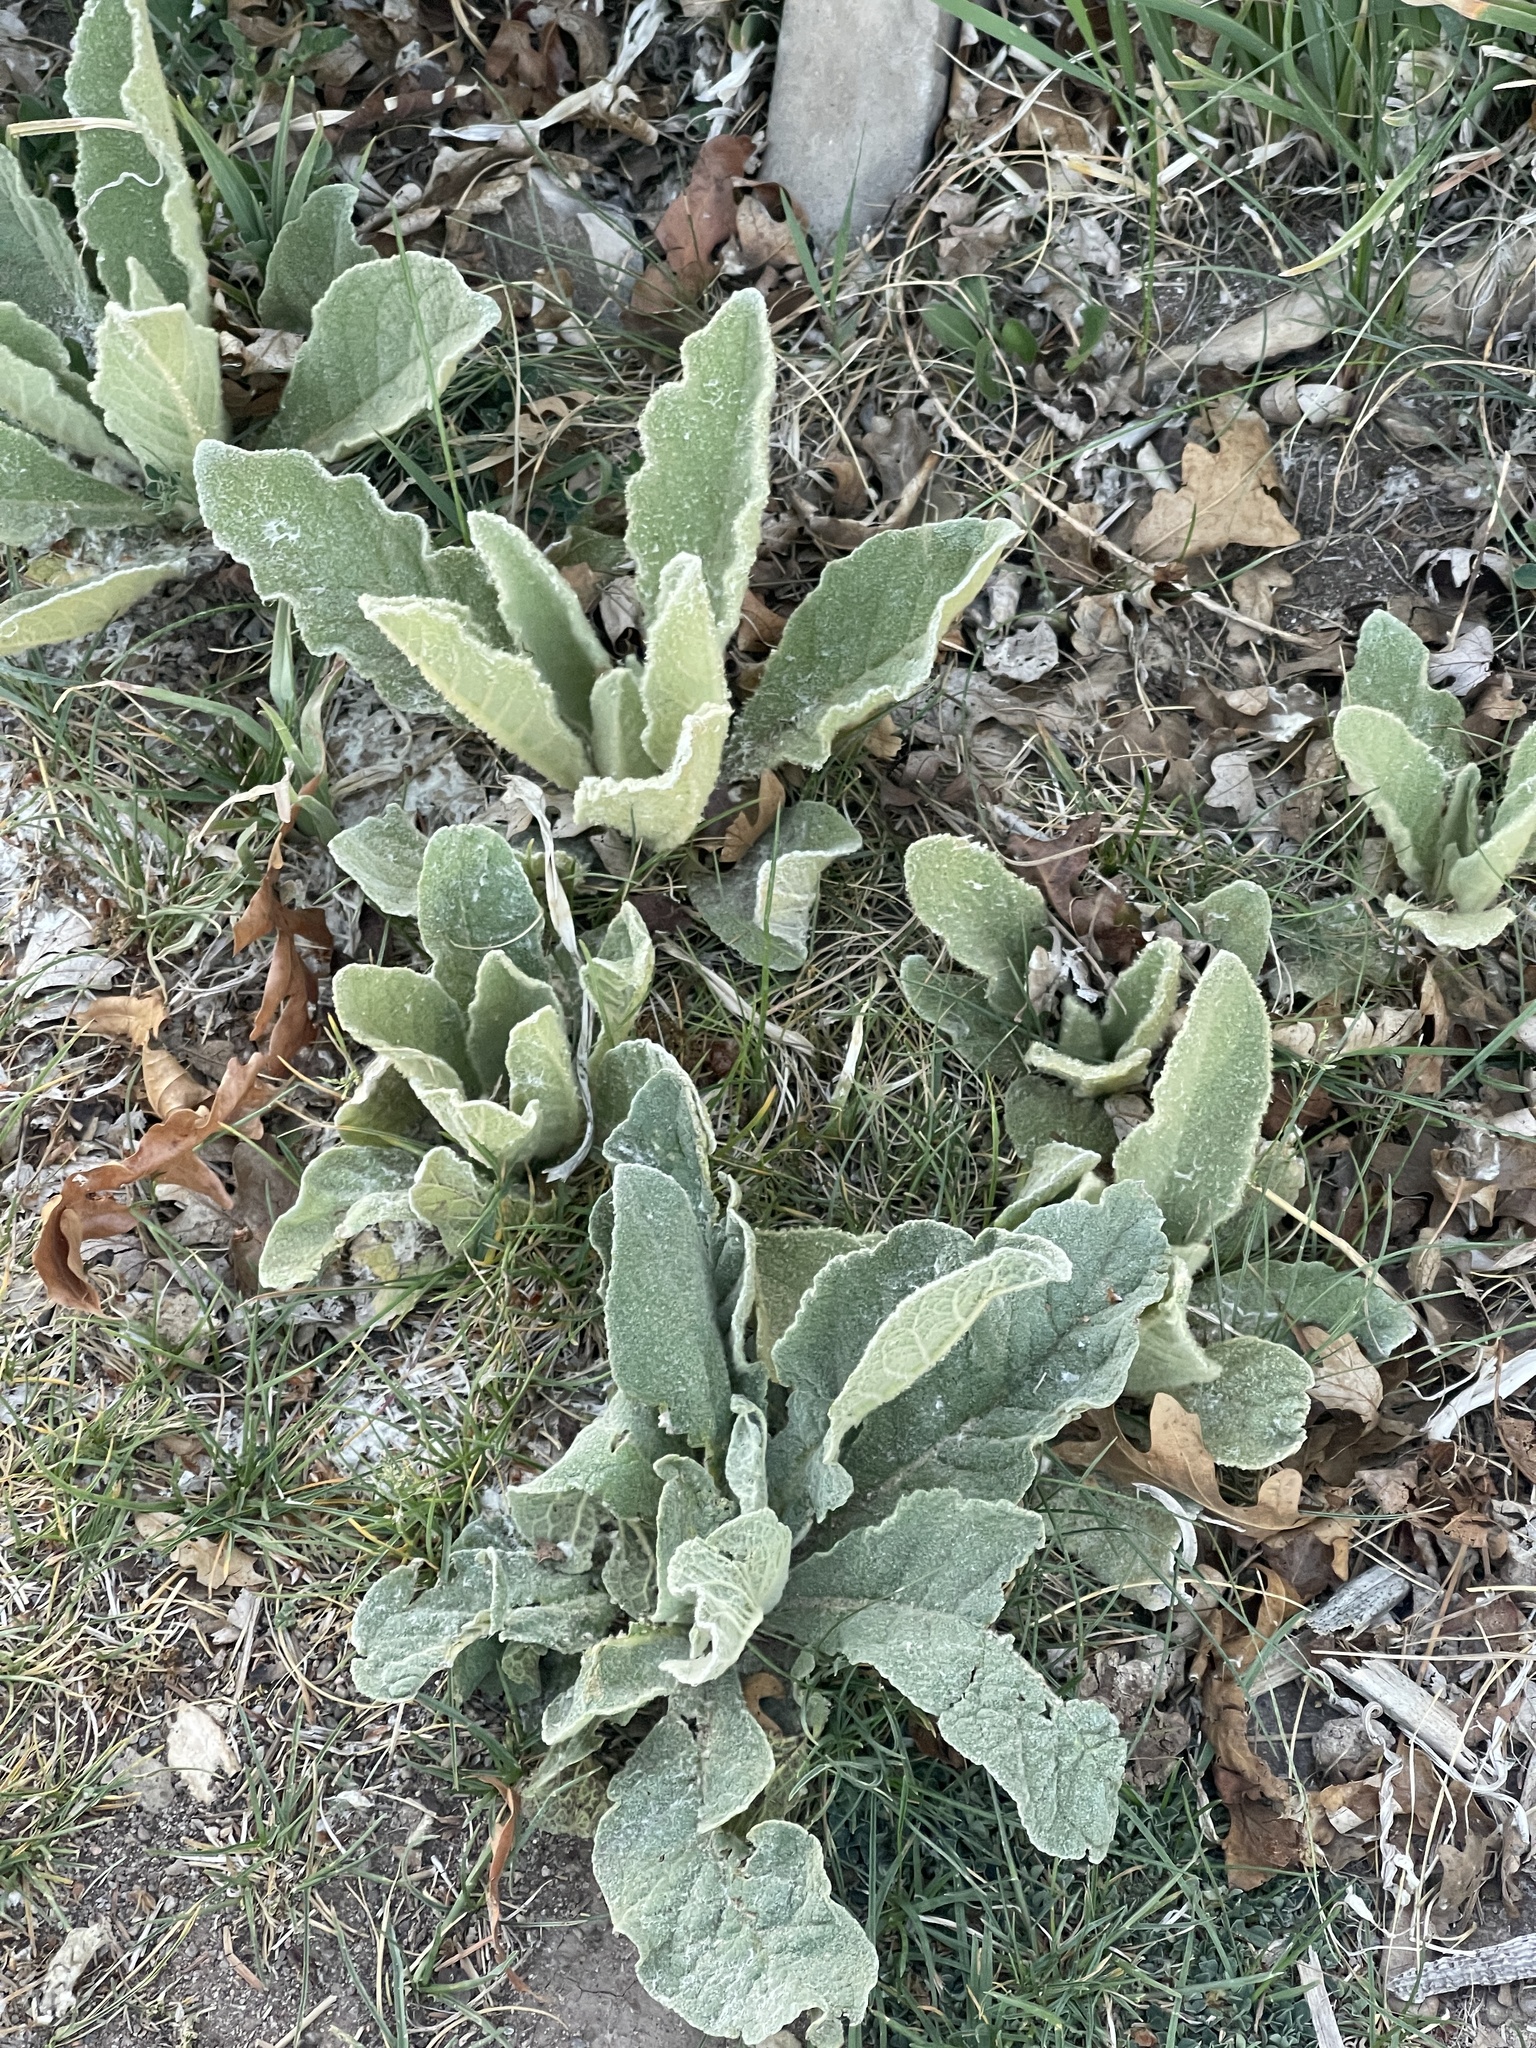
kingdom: Plantae
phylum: Tracheophyta
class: Magnoliopsida
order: Lamiales
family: Scrophulariaceae
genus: Verbascum
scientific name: Verbascum thapsus
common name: Common mullein
